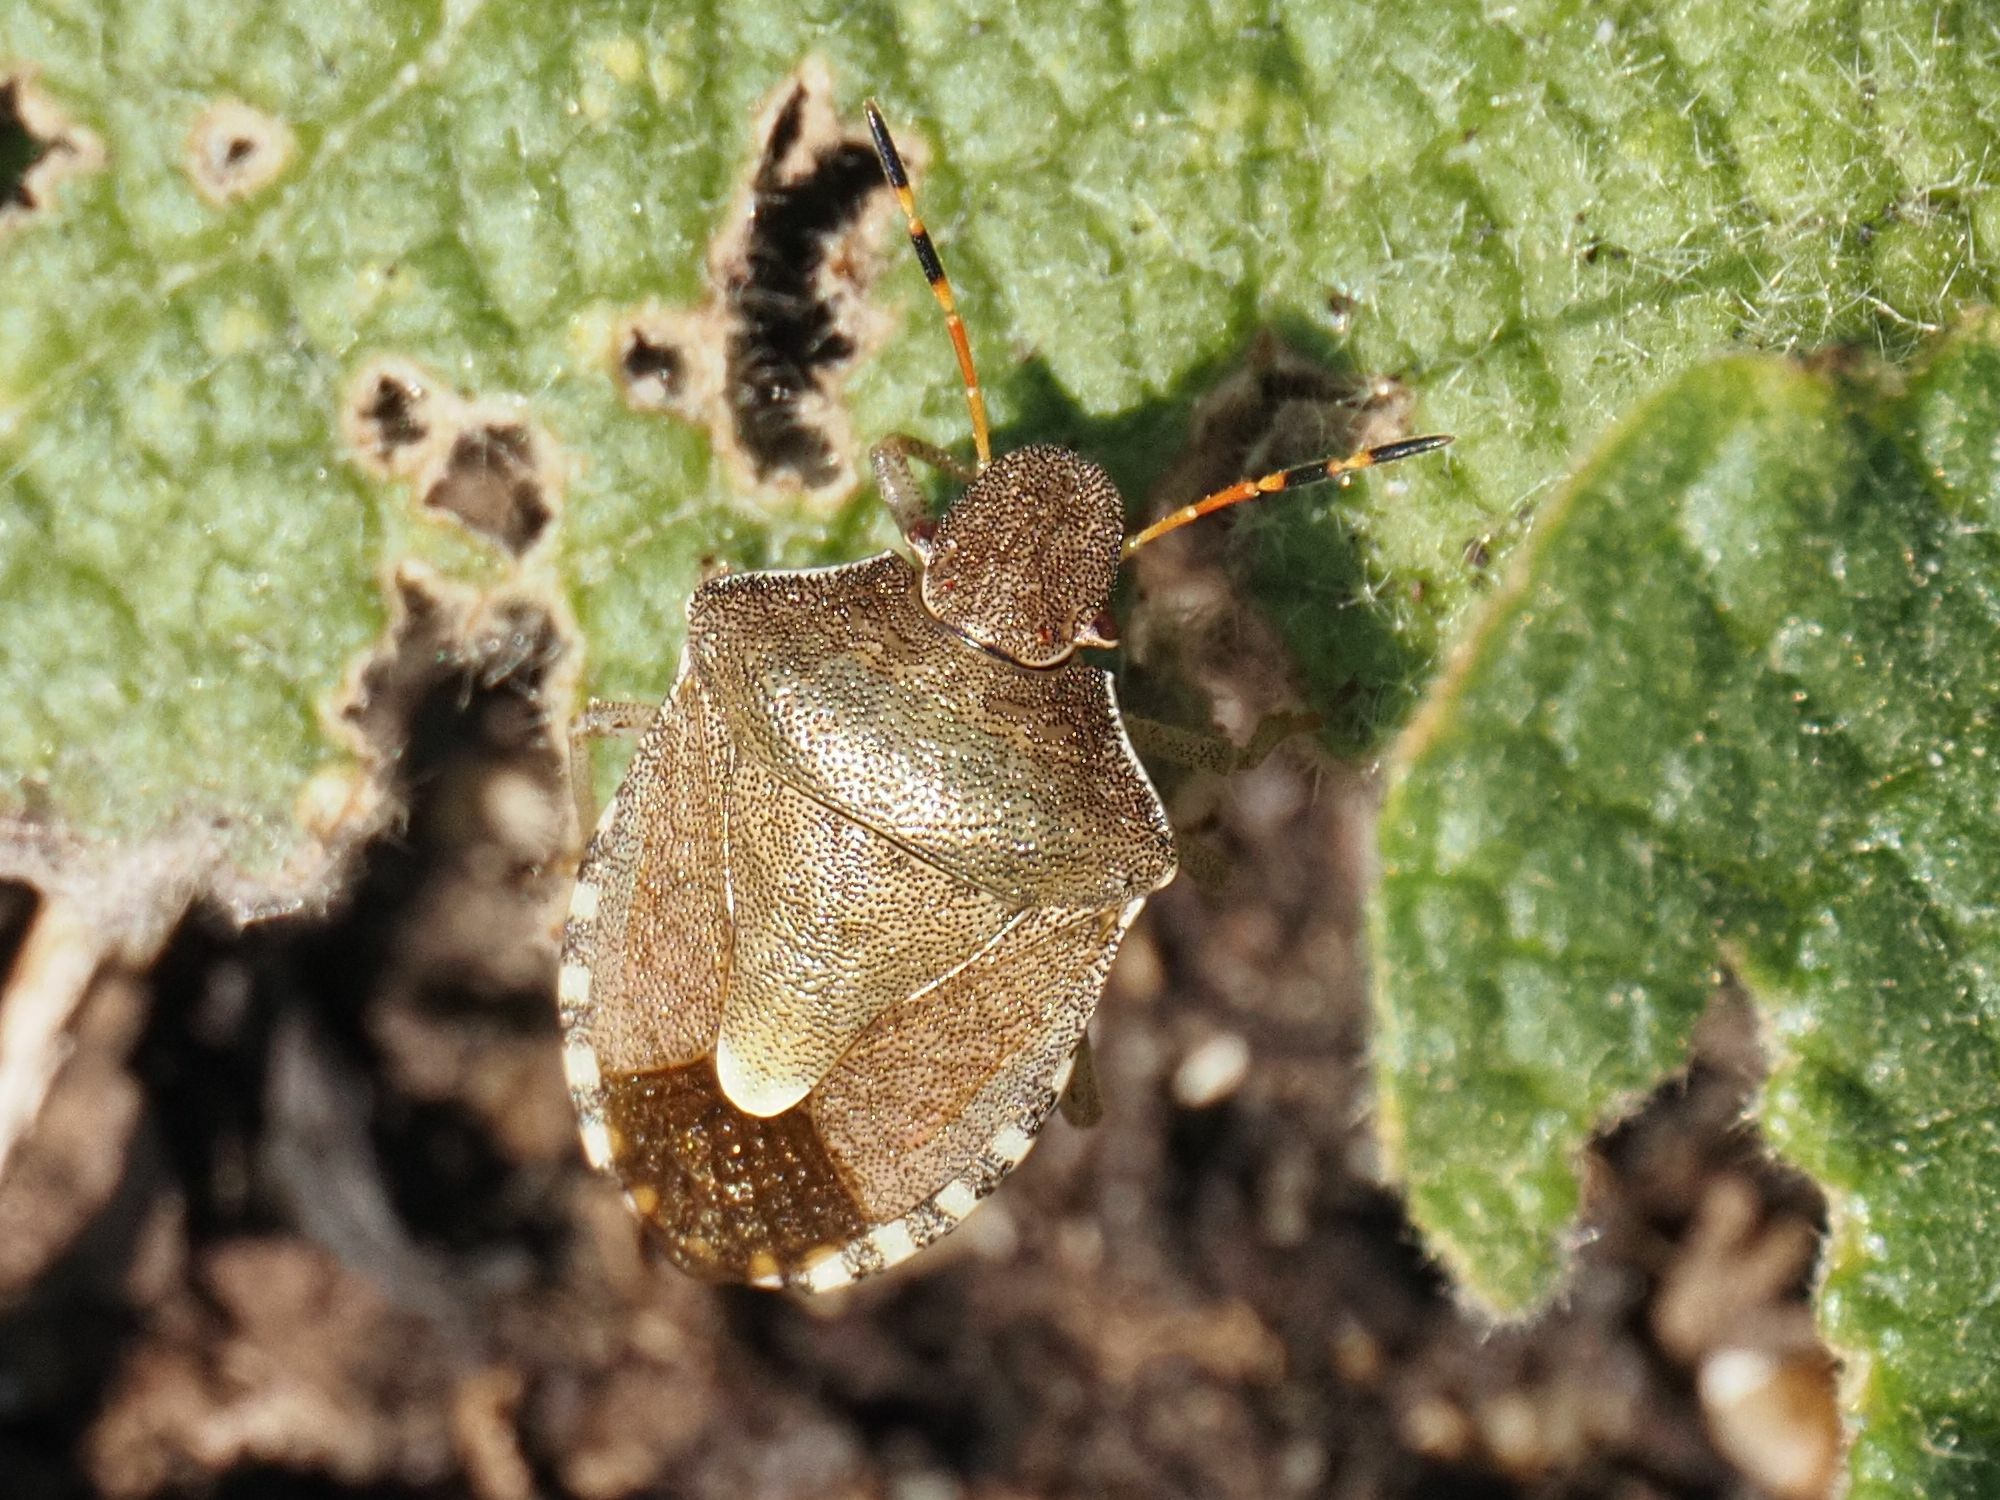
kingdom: Animalia
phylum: Arthropoda
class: Insecta
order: Hemiptera
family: Pentatomidae
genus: Holcostethus
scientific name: Holcostethus strictus
